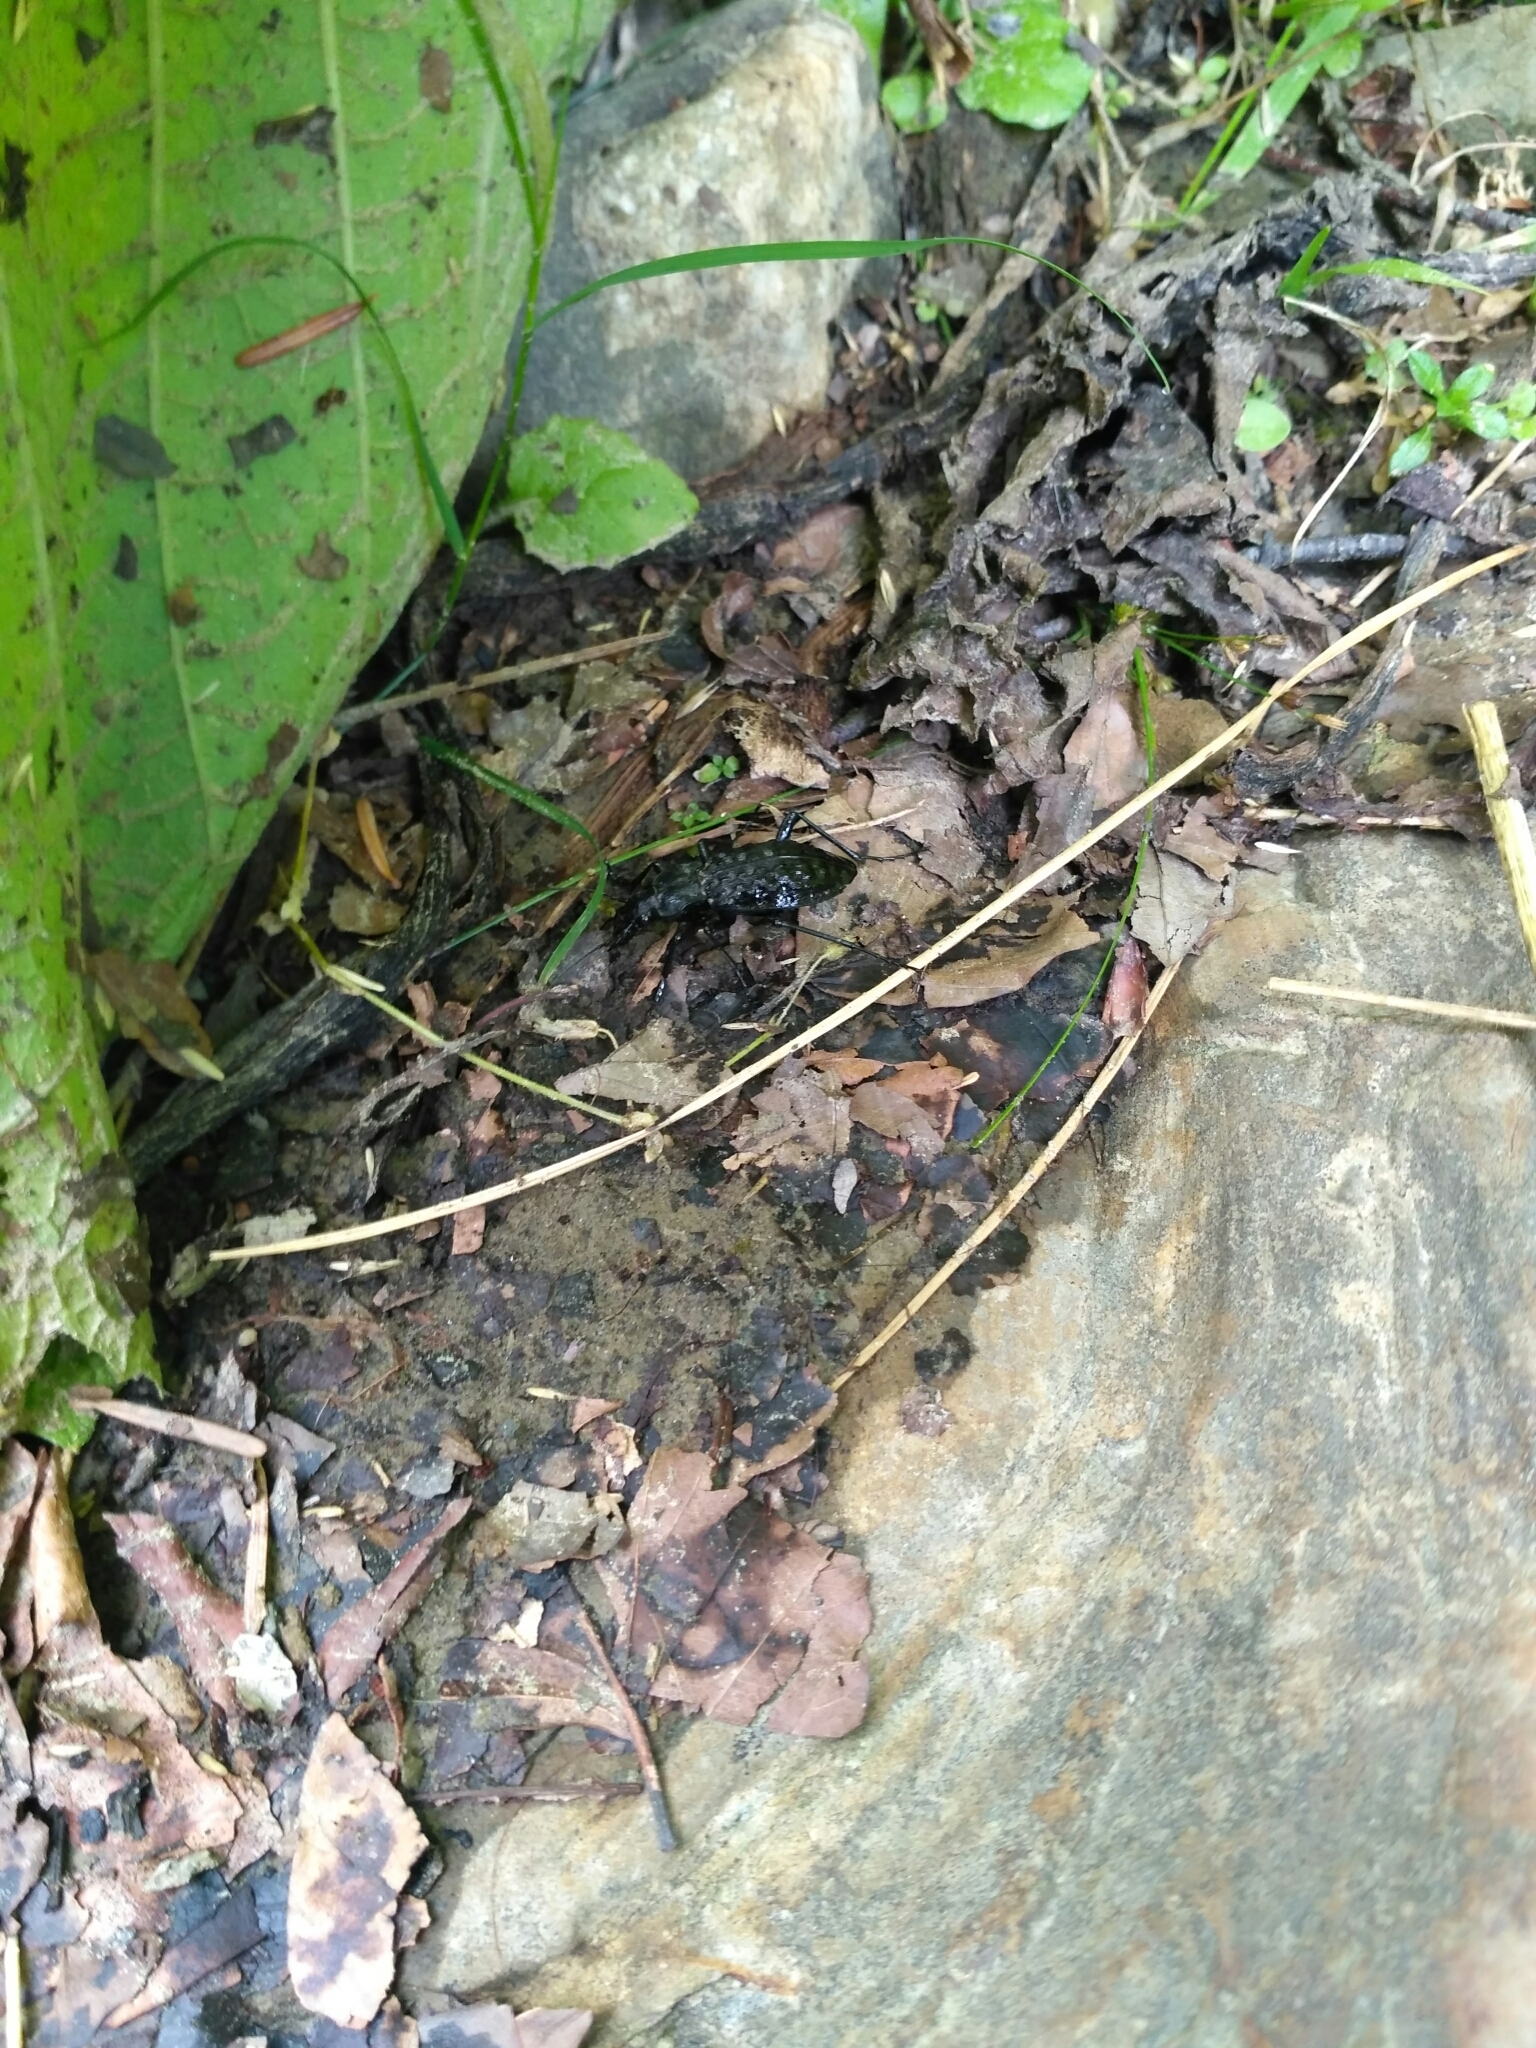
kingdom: Animalia
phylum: Arthropoda
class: Insecta
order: Coleoptera
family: Carabidae
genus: Carabus
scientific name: Carabus variolosus
